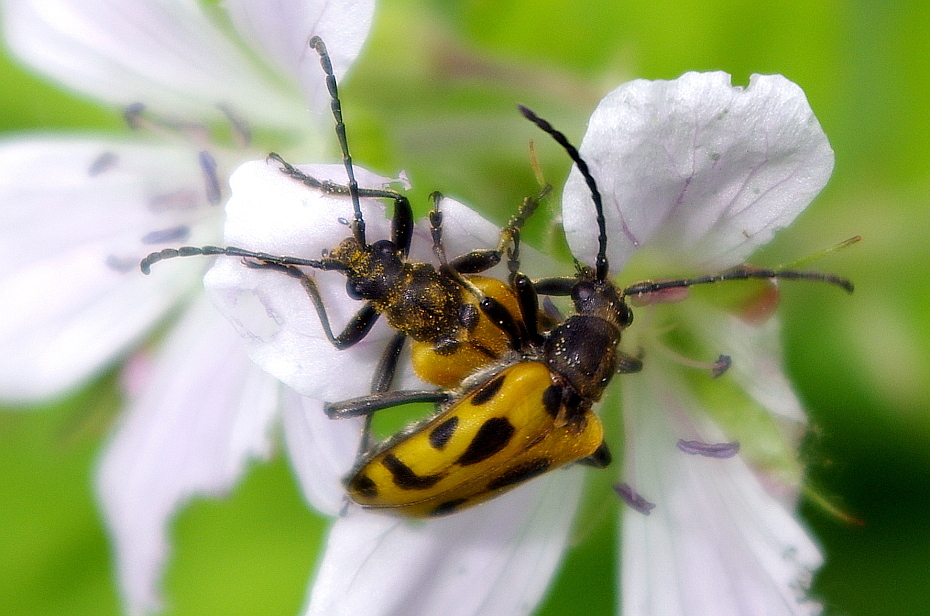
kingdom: Animalia
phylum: Arthropoda
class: Insecta
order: Coleoptera
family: Cerambycidae
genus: Brachyta
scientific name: Brachyta interrogationis
